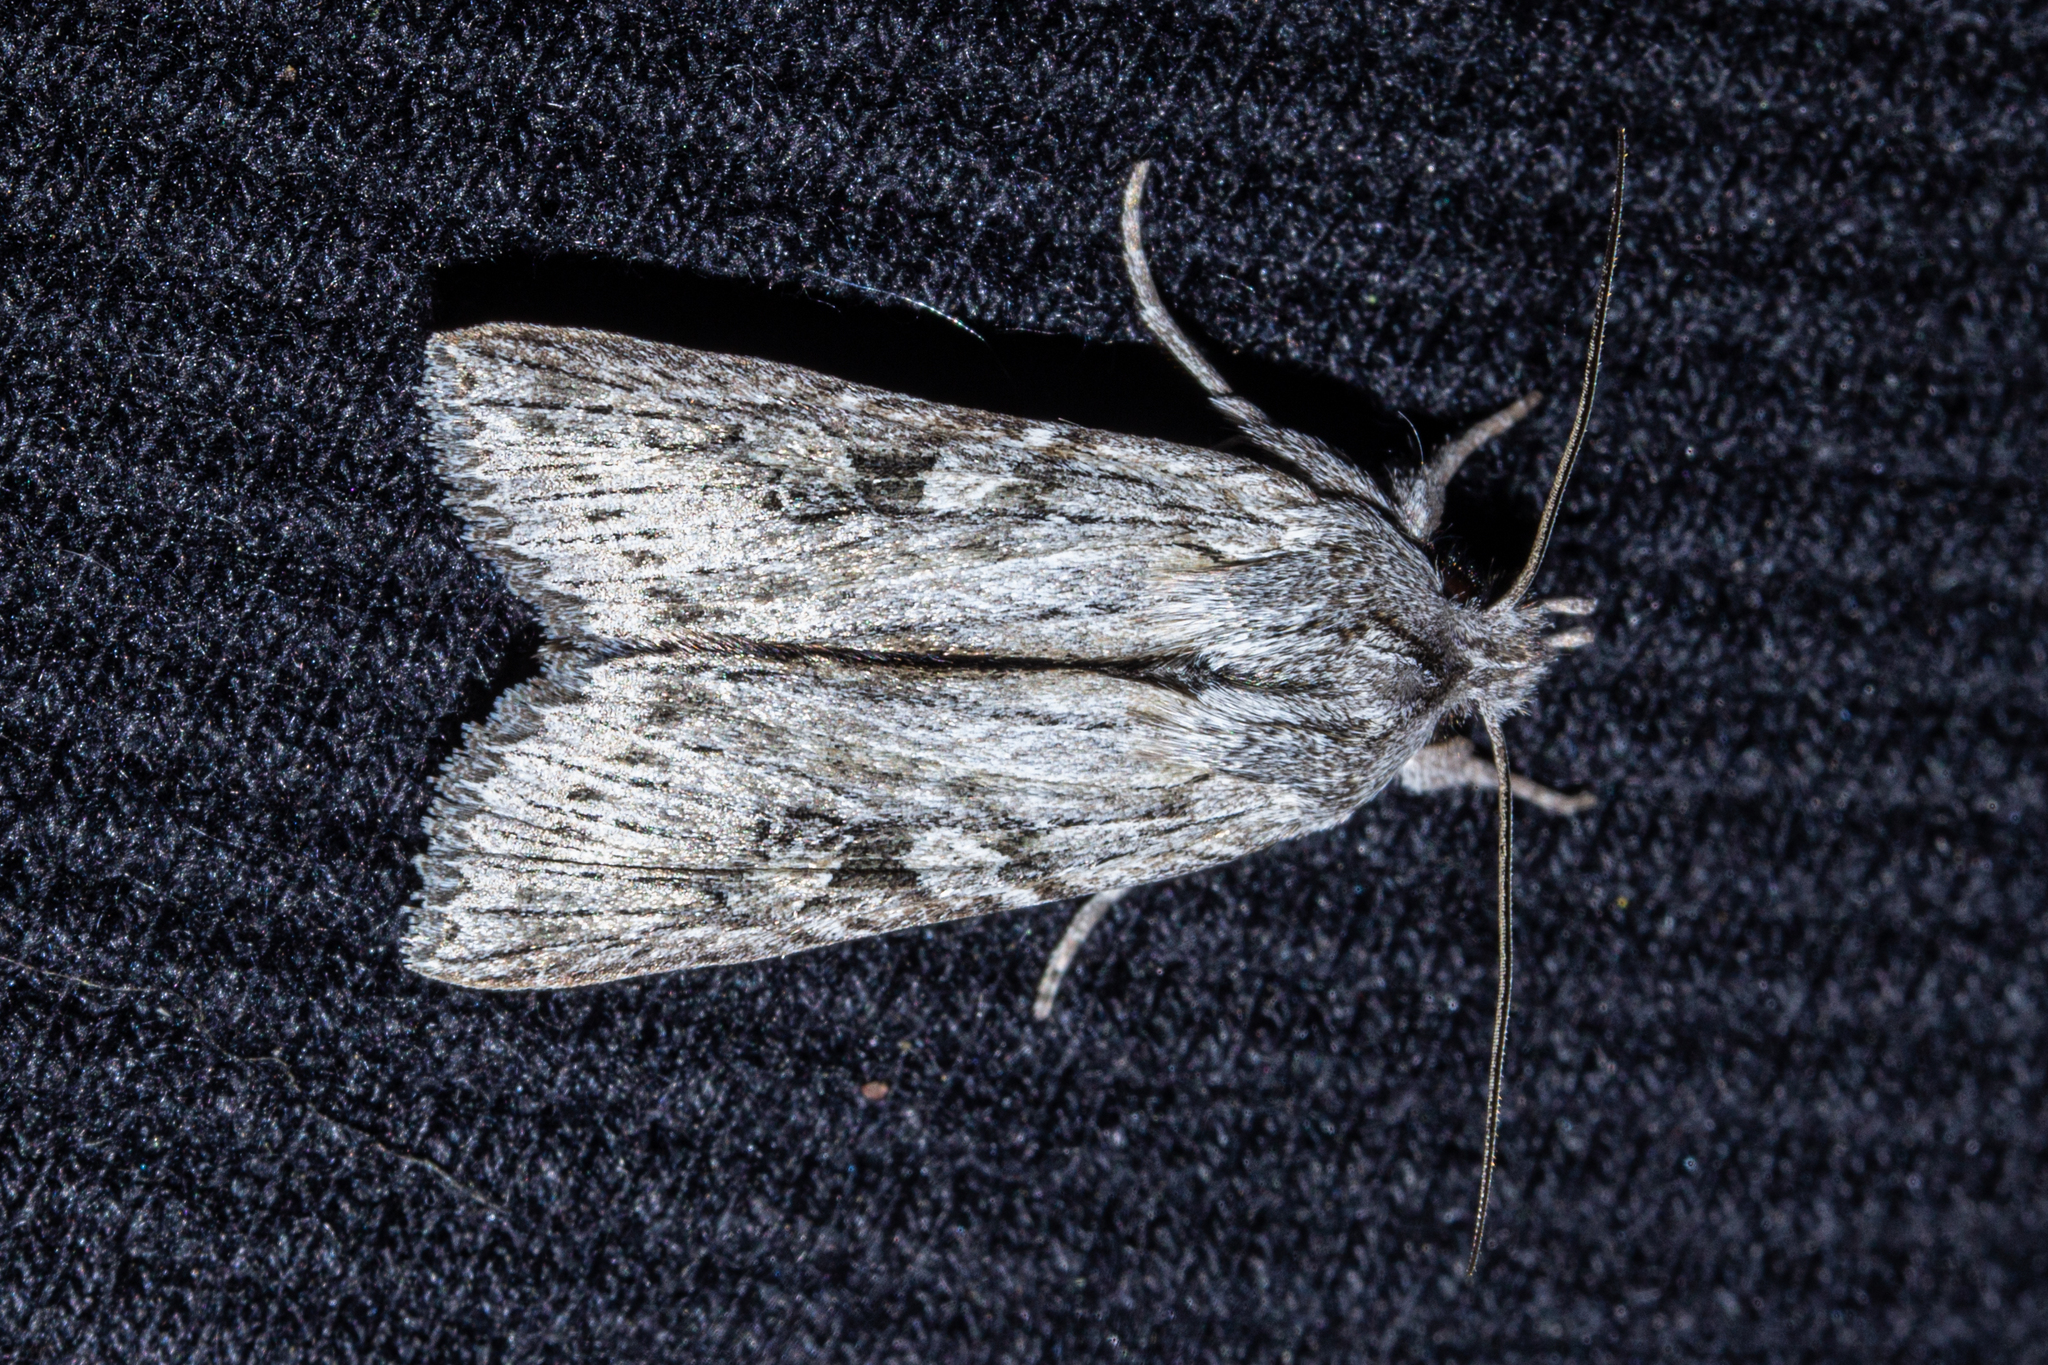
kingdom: Animalia
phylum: Arthropoda
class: Insecta
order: Lepidoptera
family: Noctuidae
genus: Physetica
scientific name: Physetica phricias
